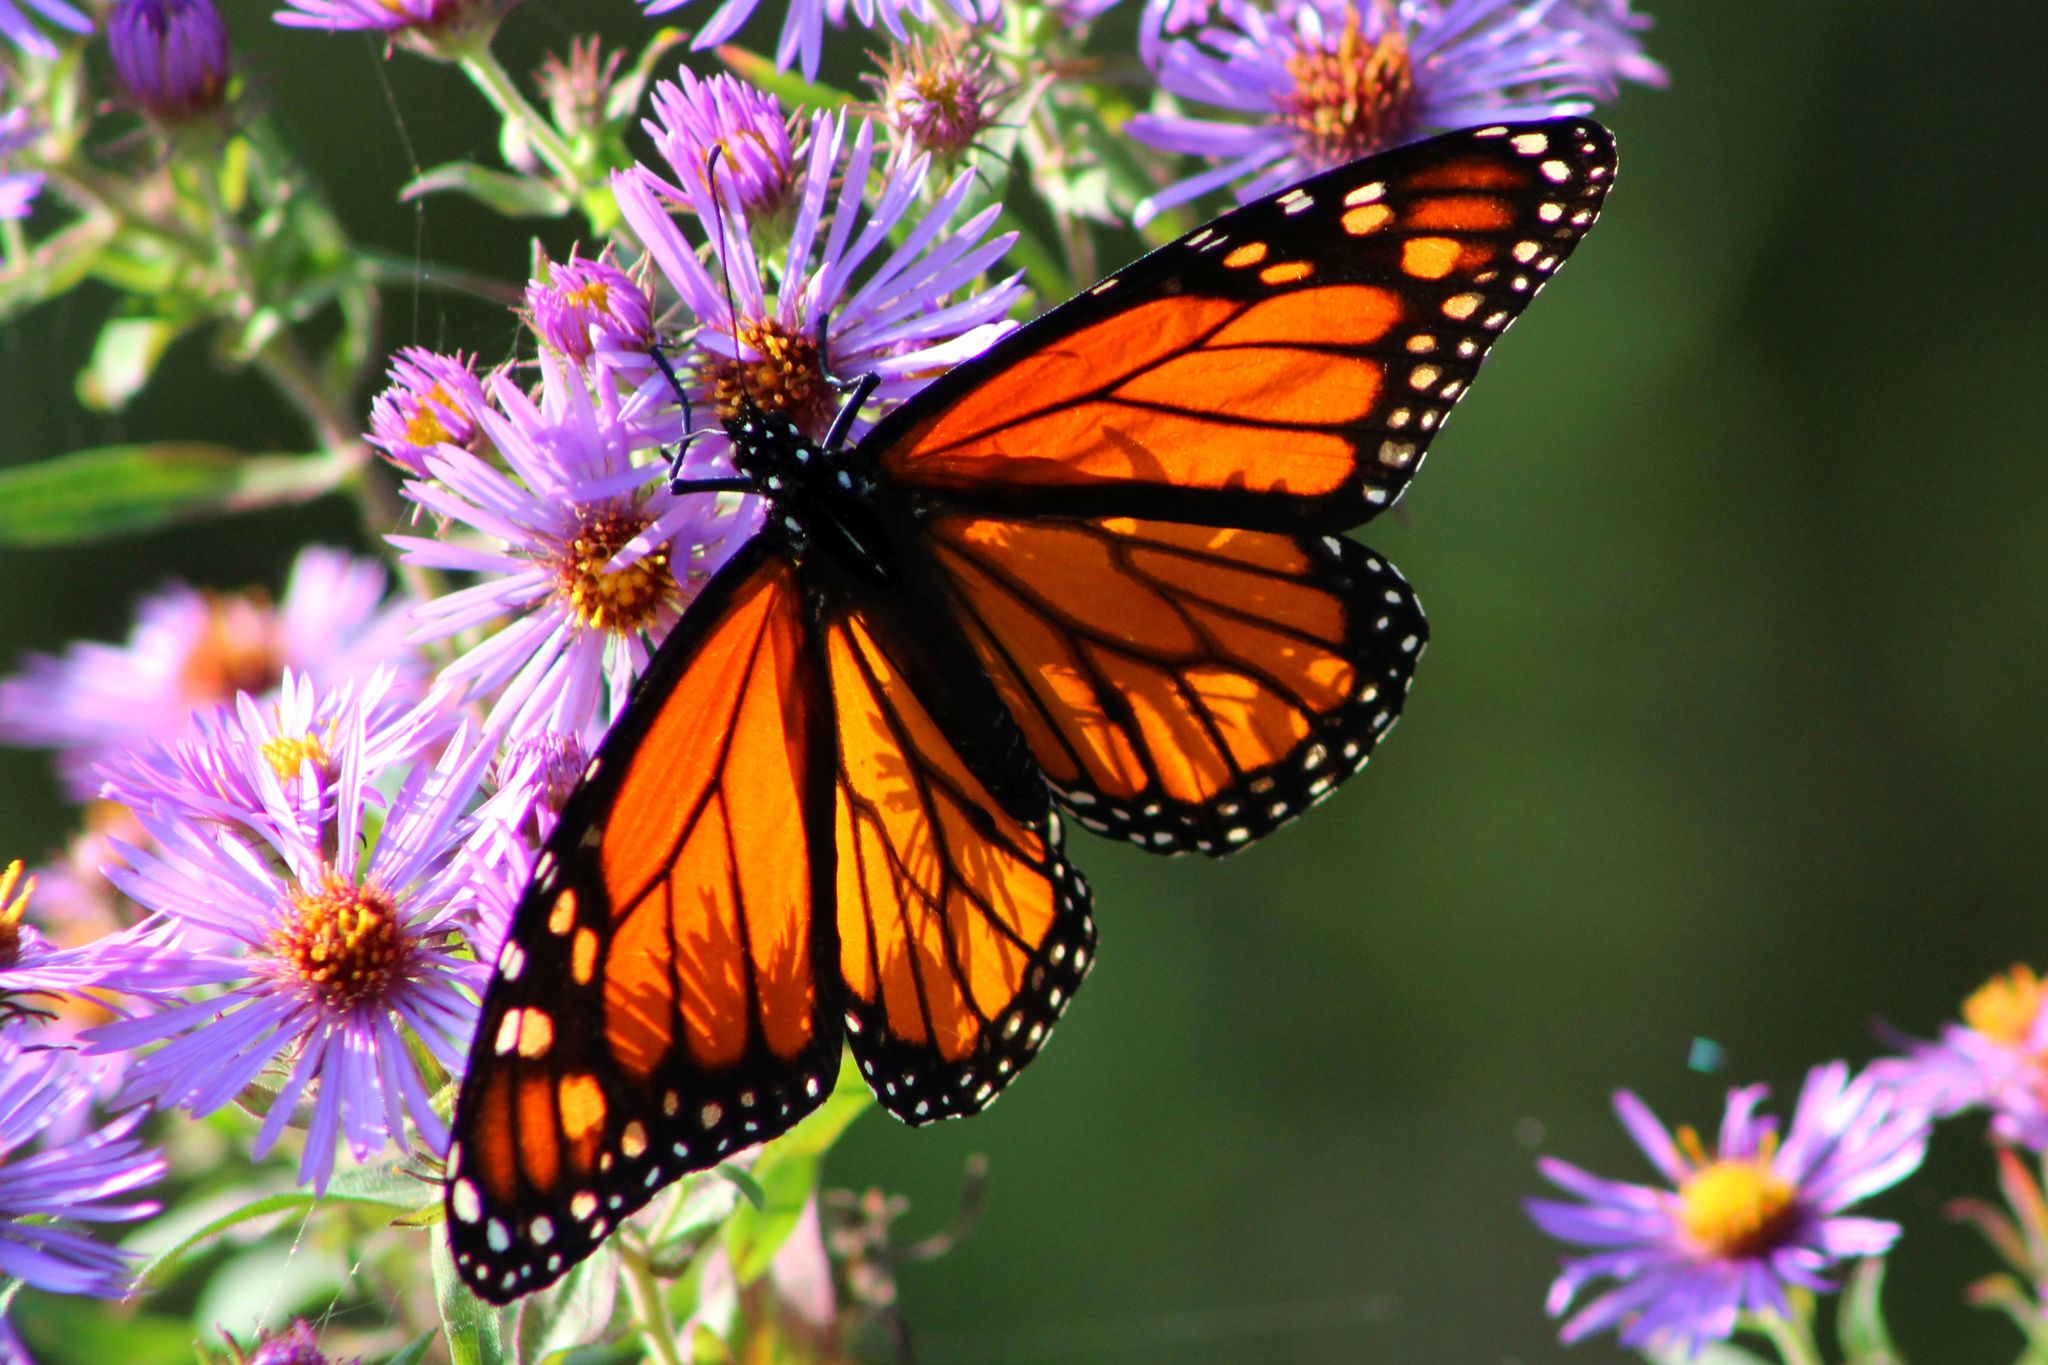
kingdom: Animalia
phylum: Arthropoda
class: Insecta
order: Lepidoptera
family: Nymphalidae
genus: Danaus
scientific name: Danaus plexippus
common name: Monarch
